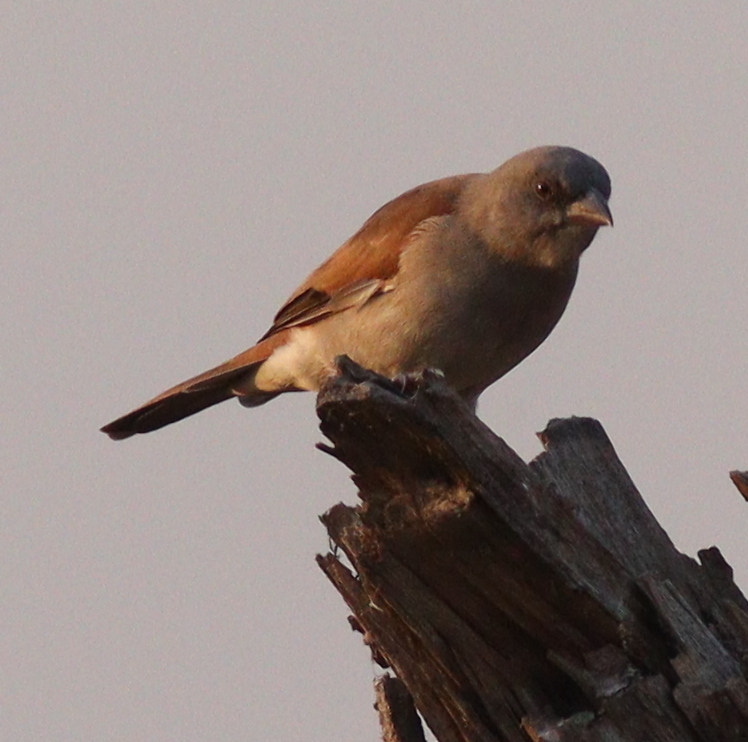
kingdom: Animalia
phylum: Chordata
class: Aves
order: Passeriformes
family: Passeridae
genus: Passer
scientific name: Passer griseus
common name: Northern grey-headed sparrow
